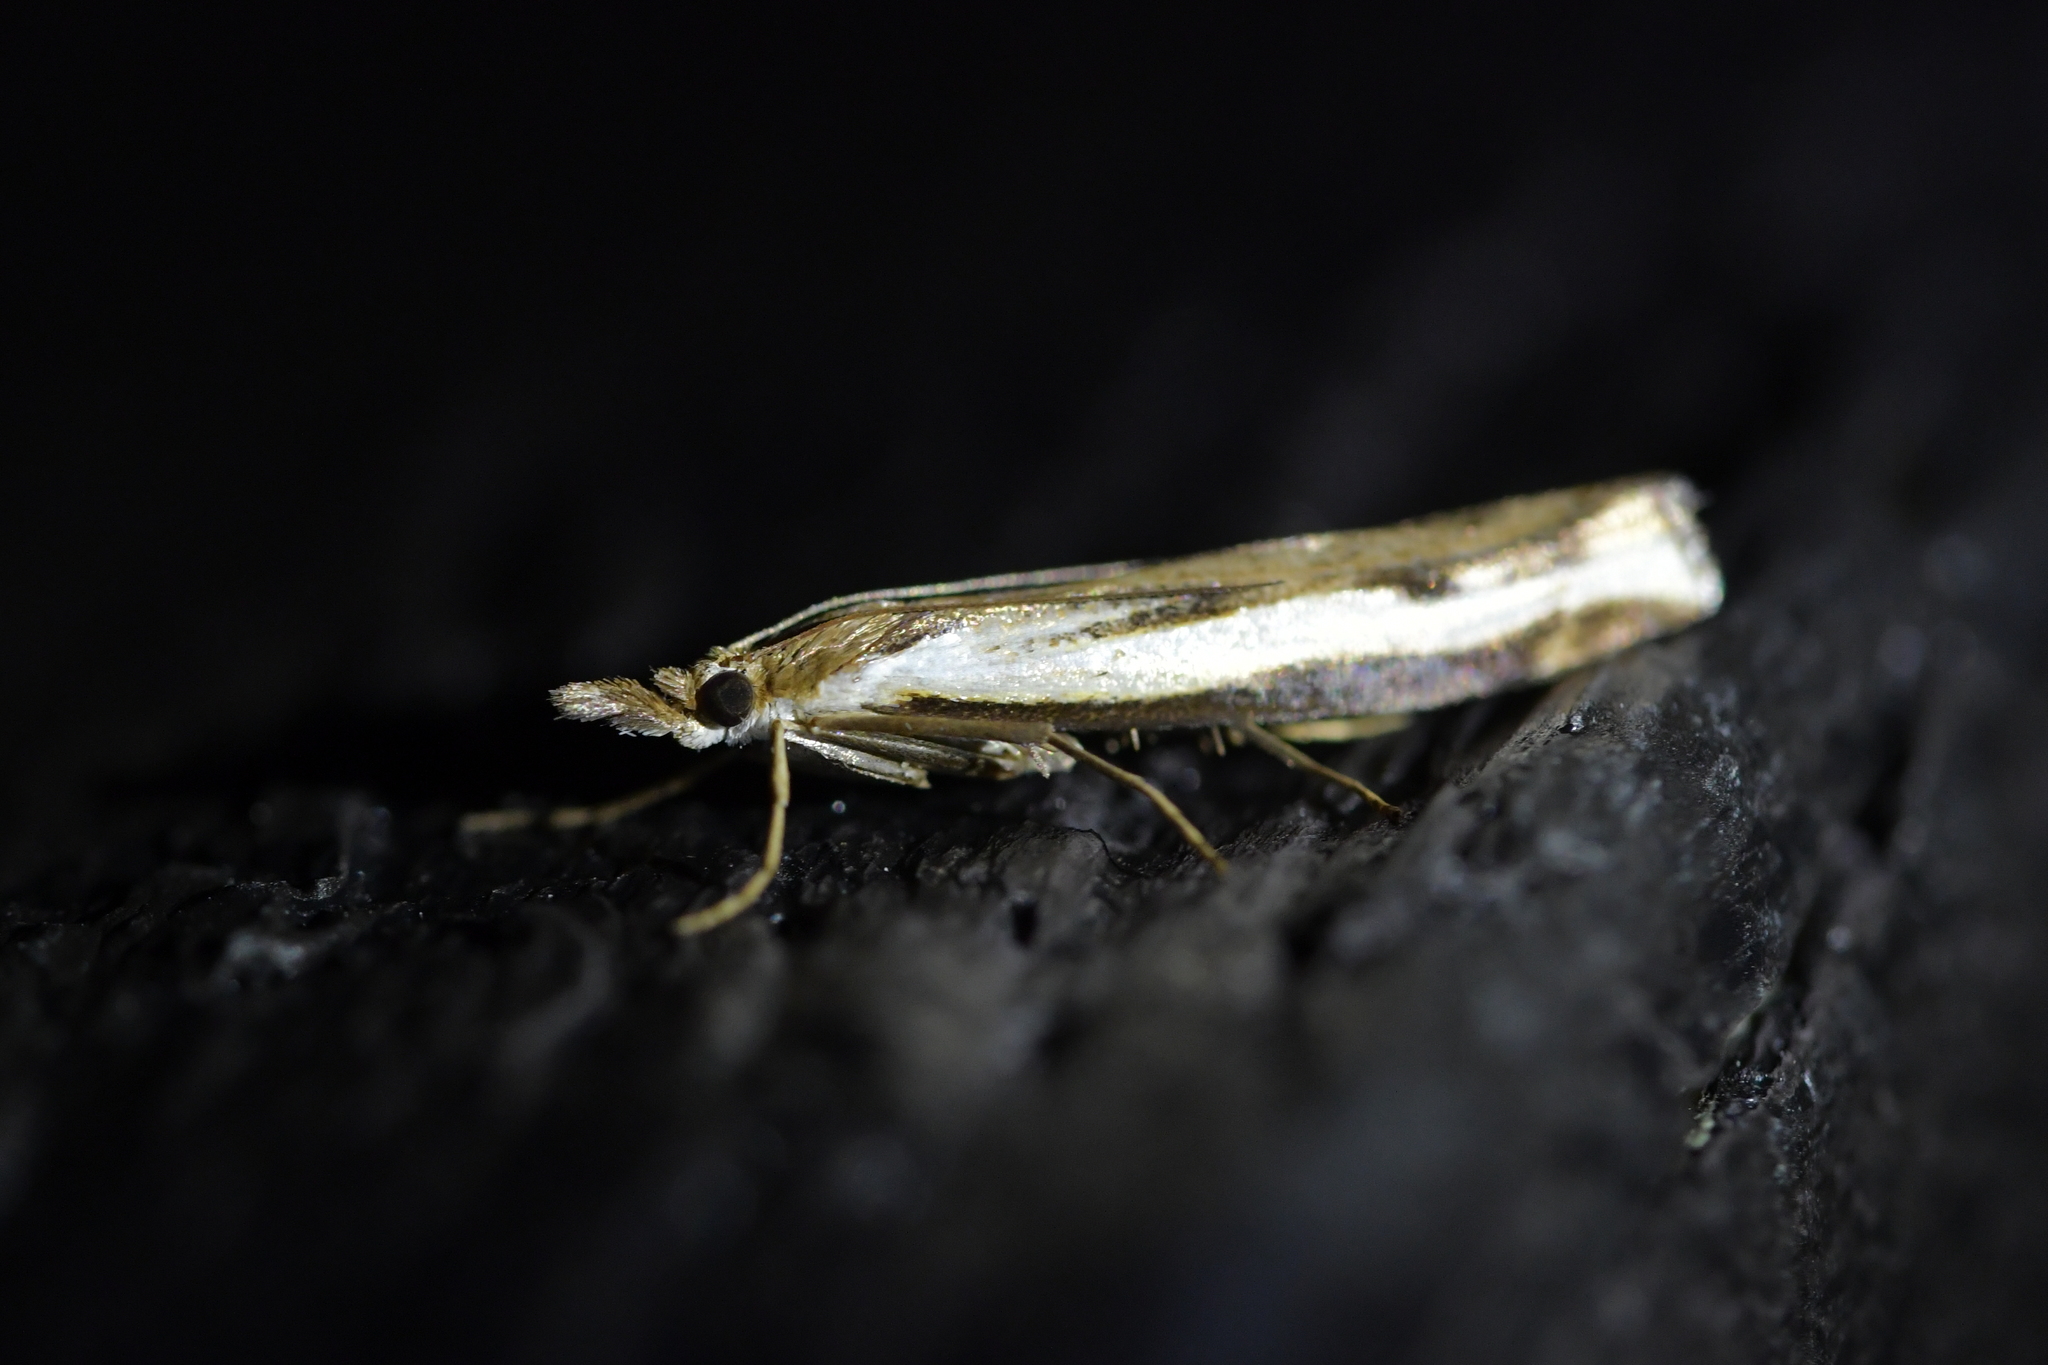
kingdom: Animalia
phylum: Arthropoda
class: Insecta
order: Lepidoptera
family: Crambidae
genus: Orocrambus
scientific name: Orocrambus flexuosellus
